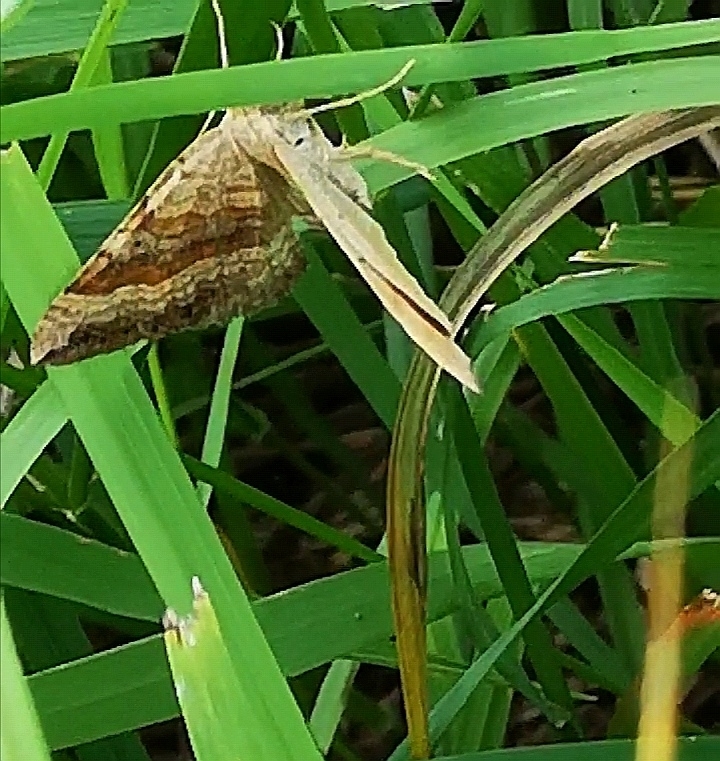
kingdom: Animalia
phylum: Arthropoda
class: Insecta
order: Lepidoptera
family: Geometridae
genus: Scotopteryx
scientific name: Scotopteryx chenopodiata
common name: Shaded broad-bar
